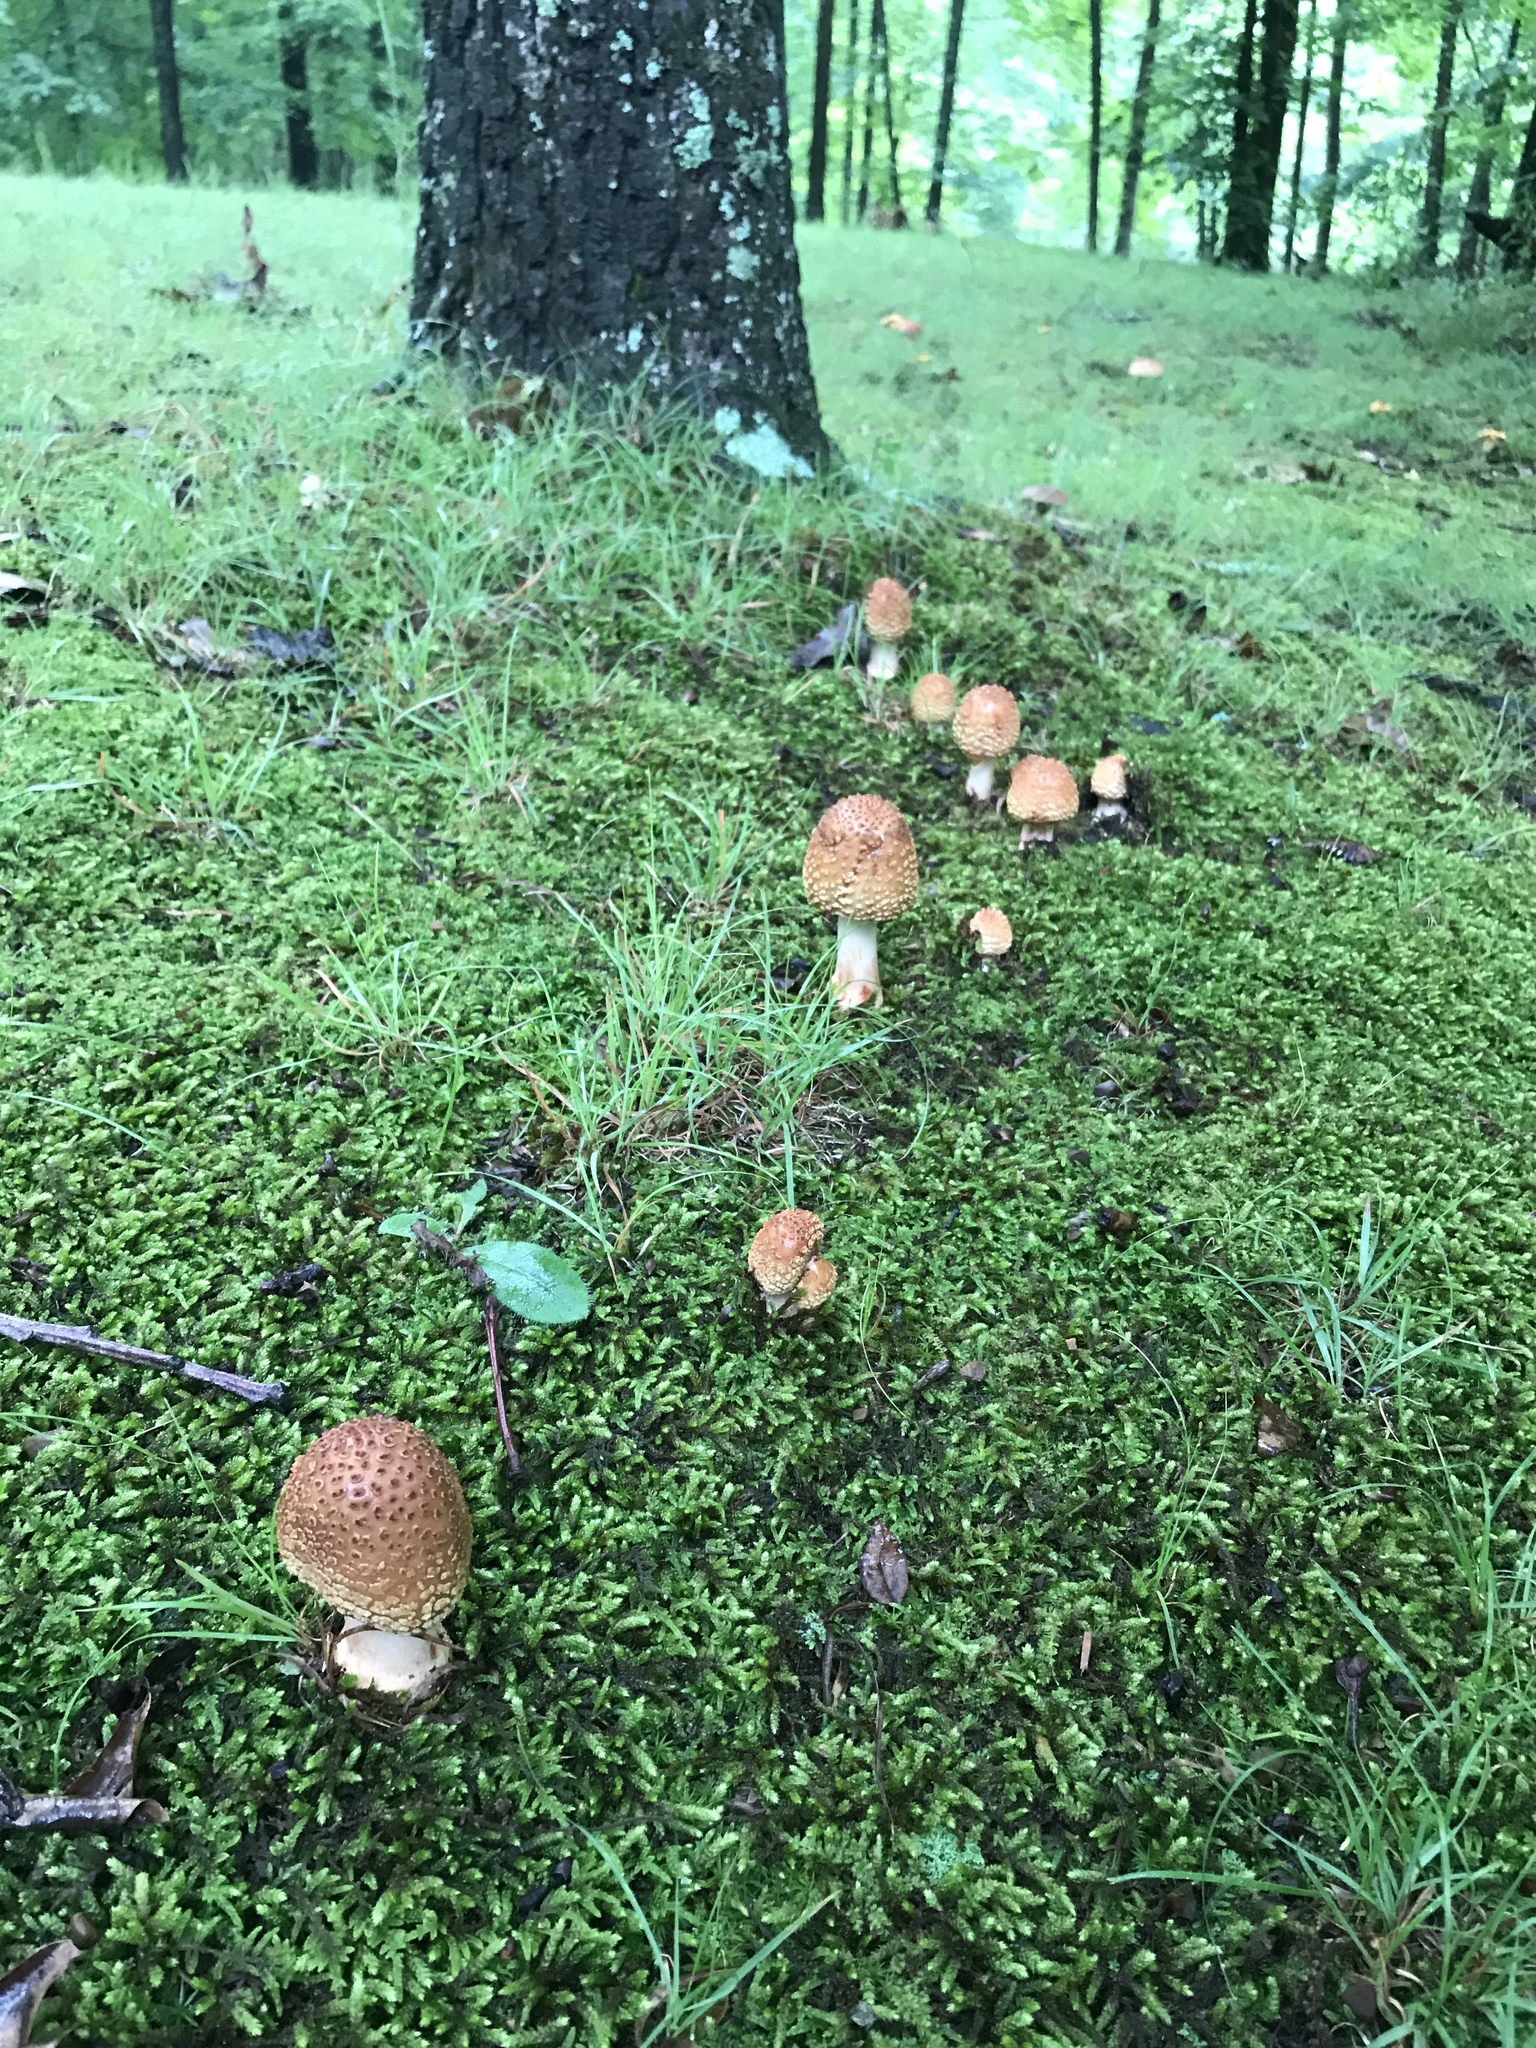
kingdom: Fungi
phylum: Basidiomycota
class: Agaricomycetes
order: Agaricales
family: Amanitaceae
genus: Amanita
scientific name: Amanita flavorubens
